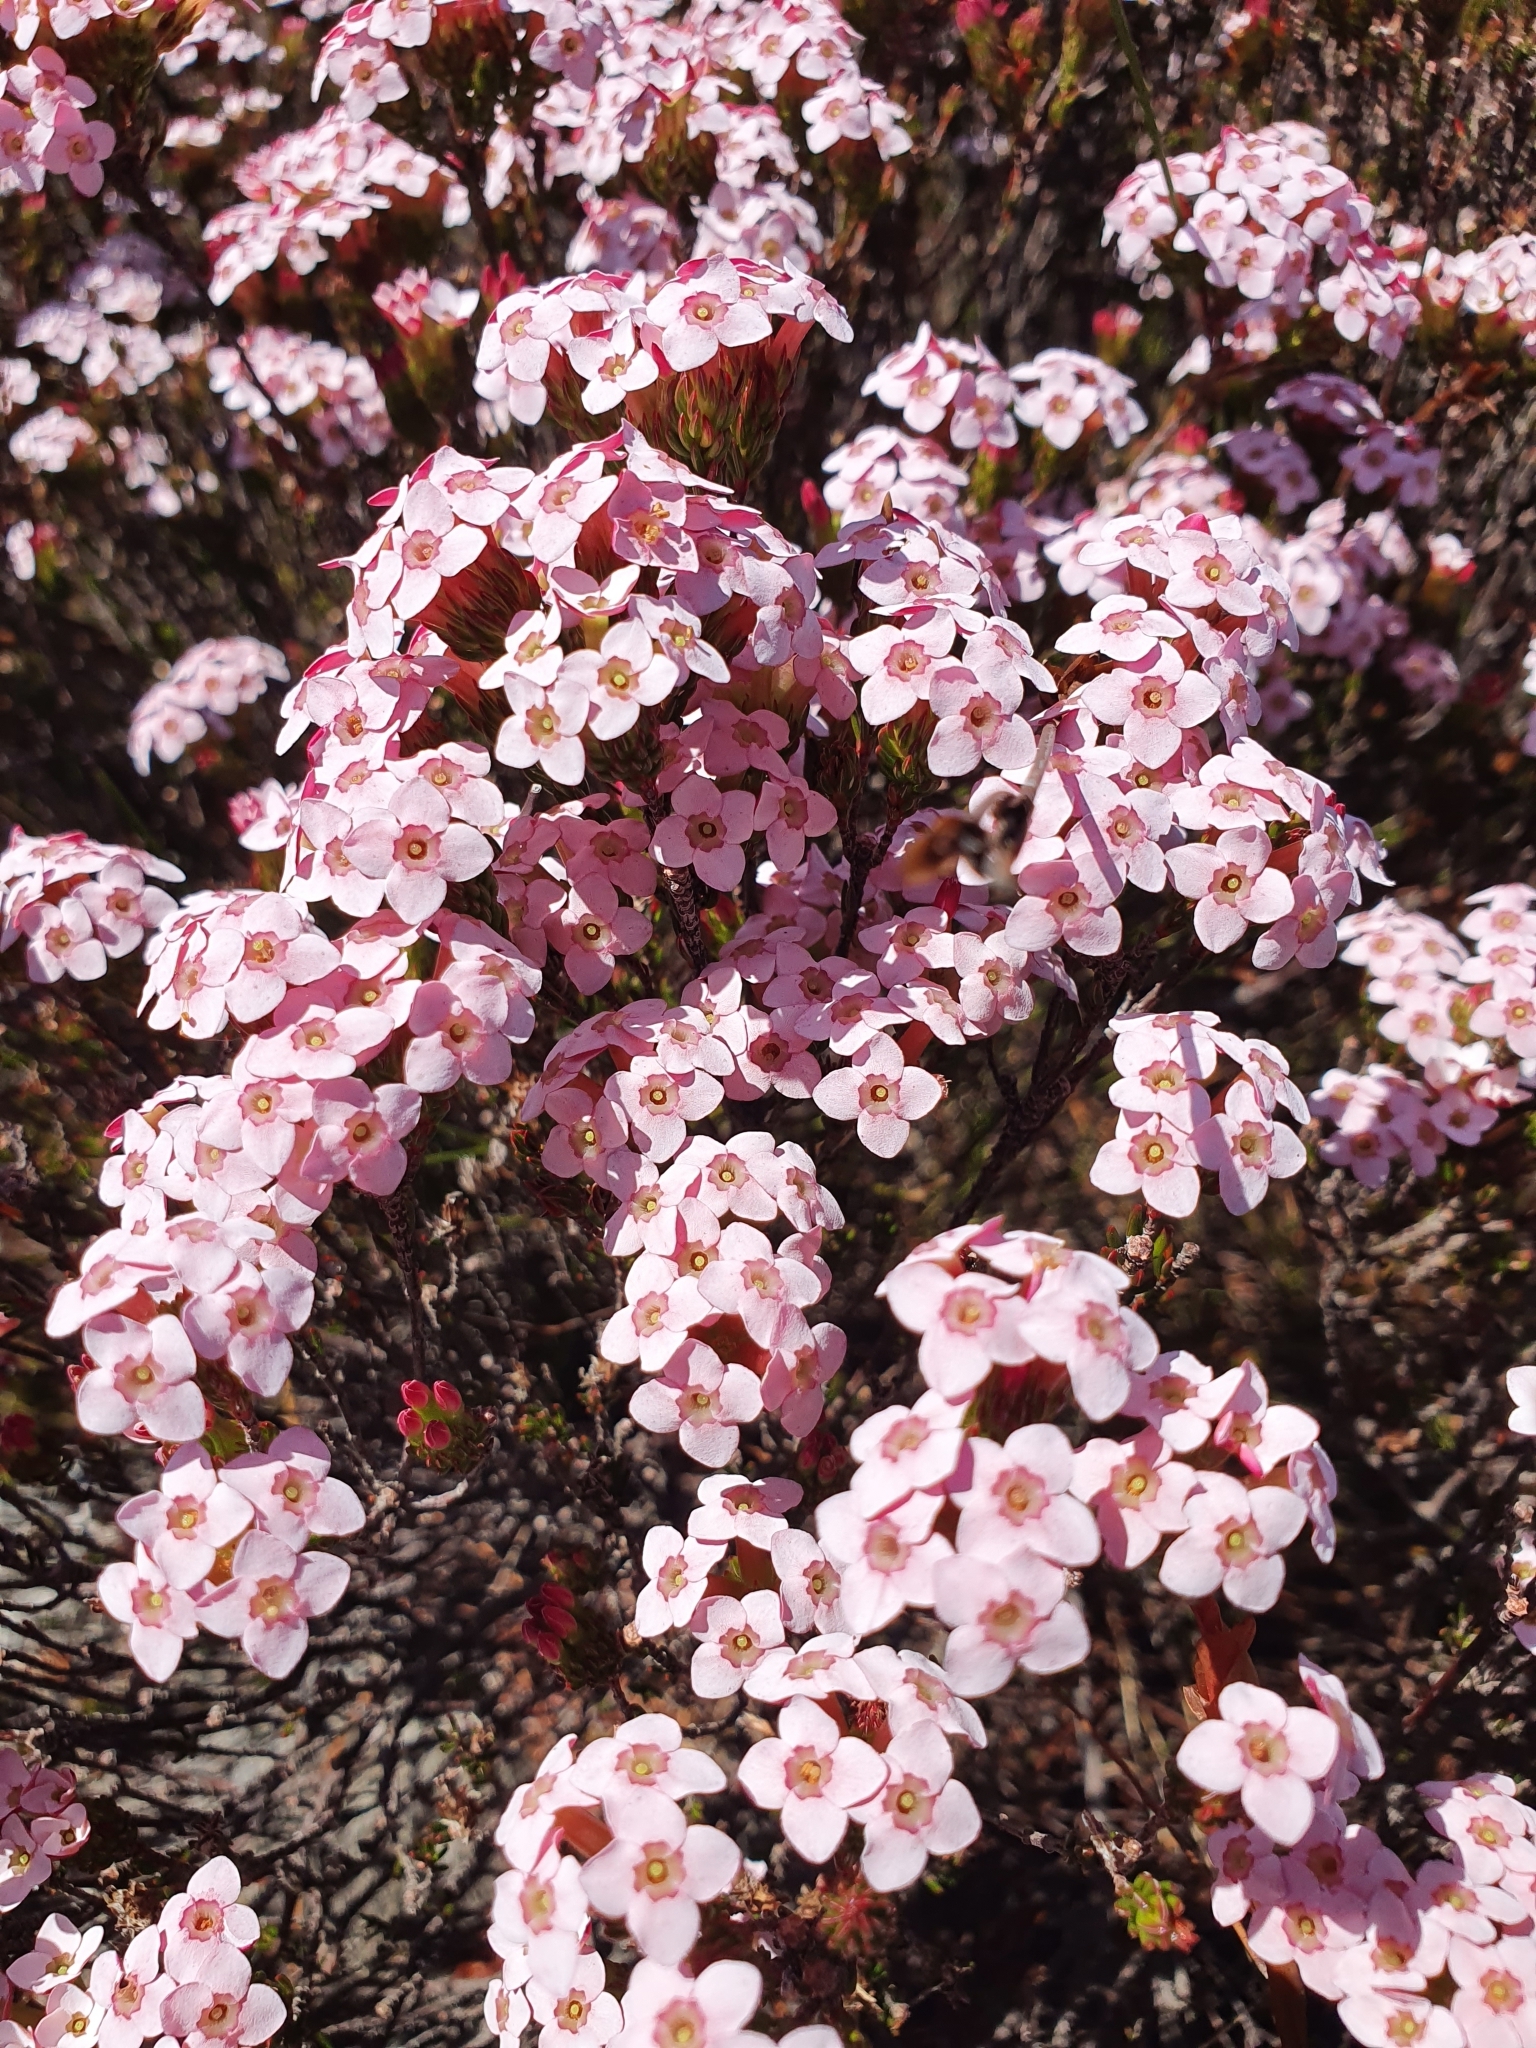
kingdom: Plantae
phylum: Tracheophyta
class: Magnoliopsida
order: Ericales
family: Ericaceae
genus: Erica
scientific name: Erica fastigiata
